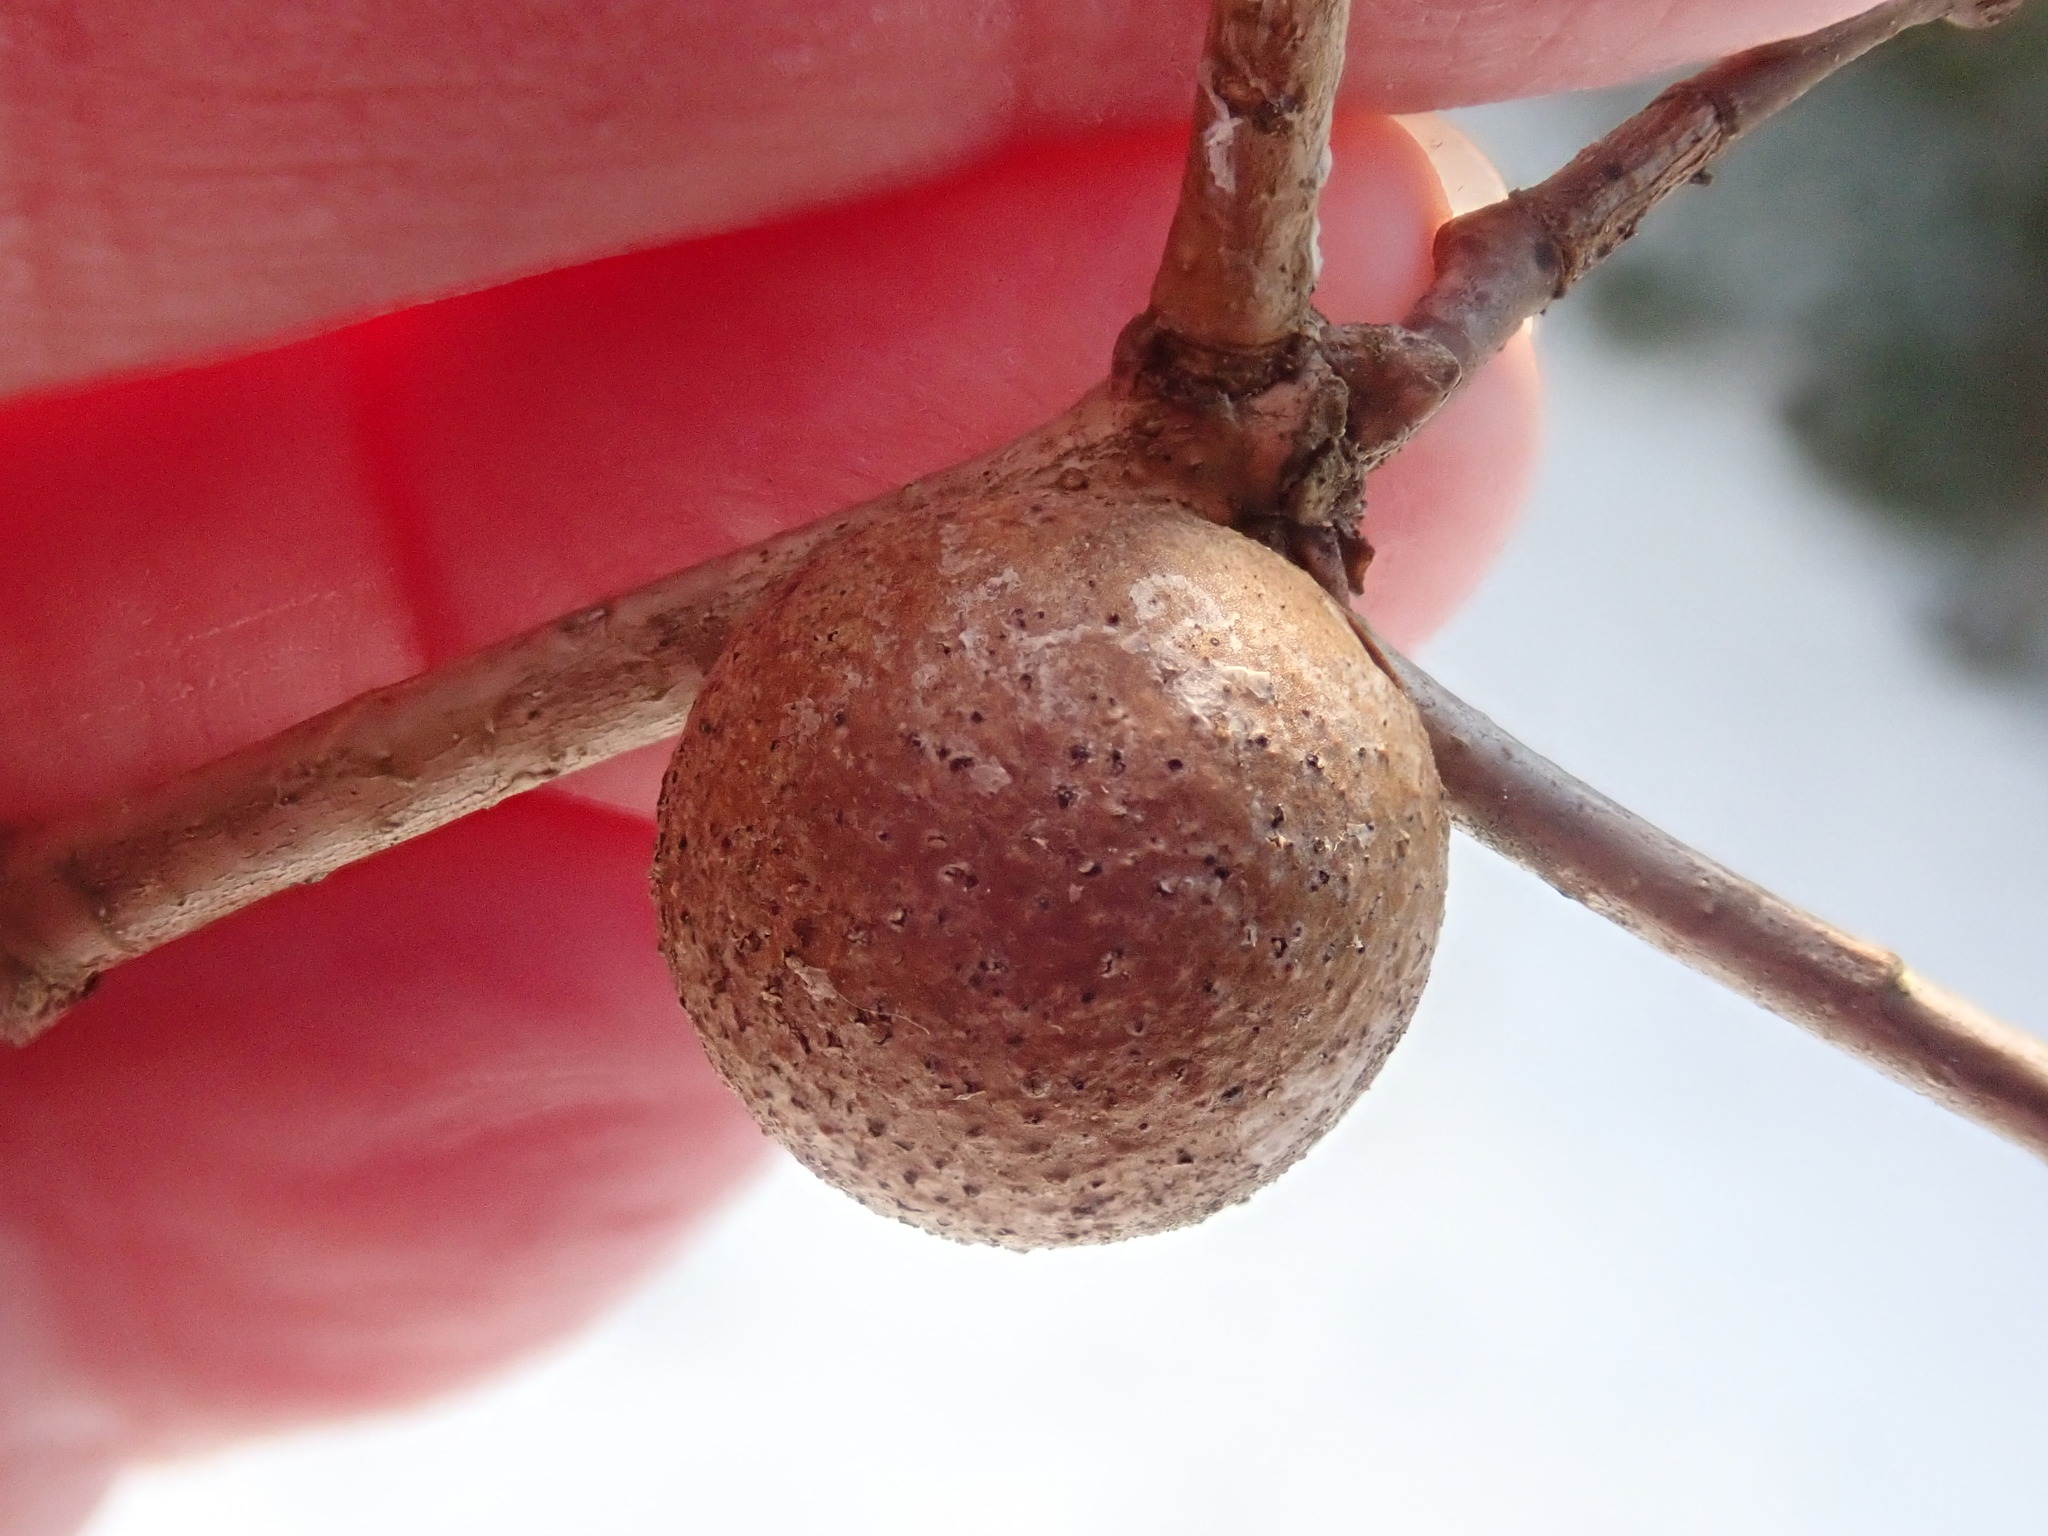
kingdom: Animalia
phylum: Arthropoda
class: Insecta
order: Hymenoptera
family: Cynipidae
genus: Disholcaspis
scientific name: Disholcaspis quercusglobulus
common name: Round bullet gall wasp
